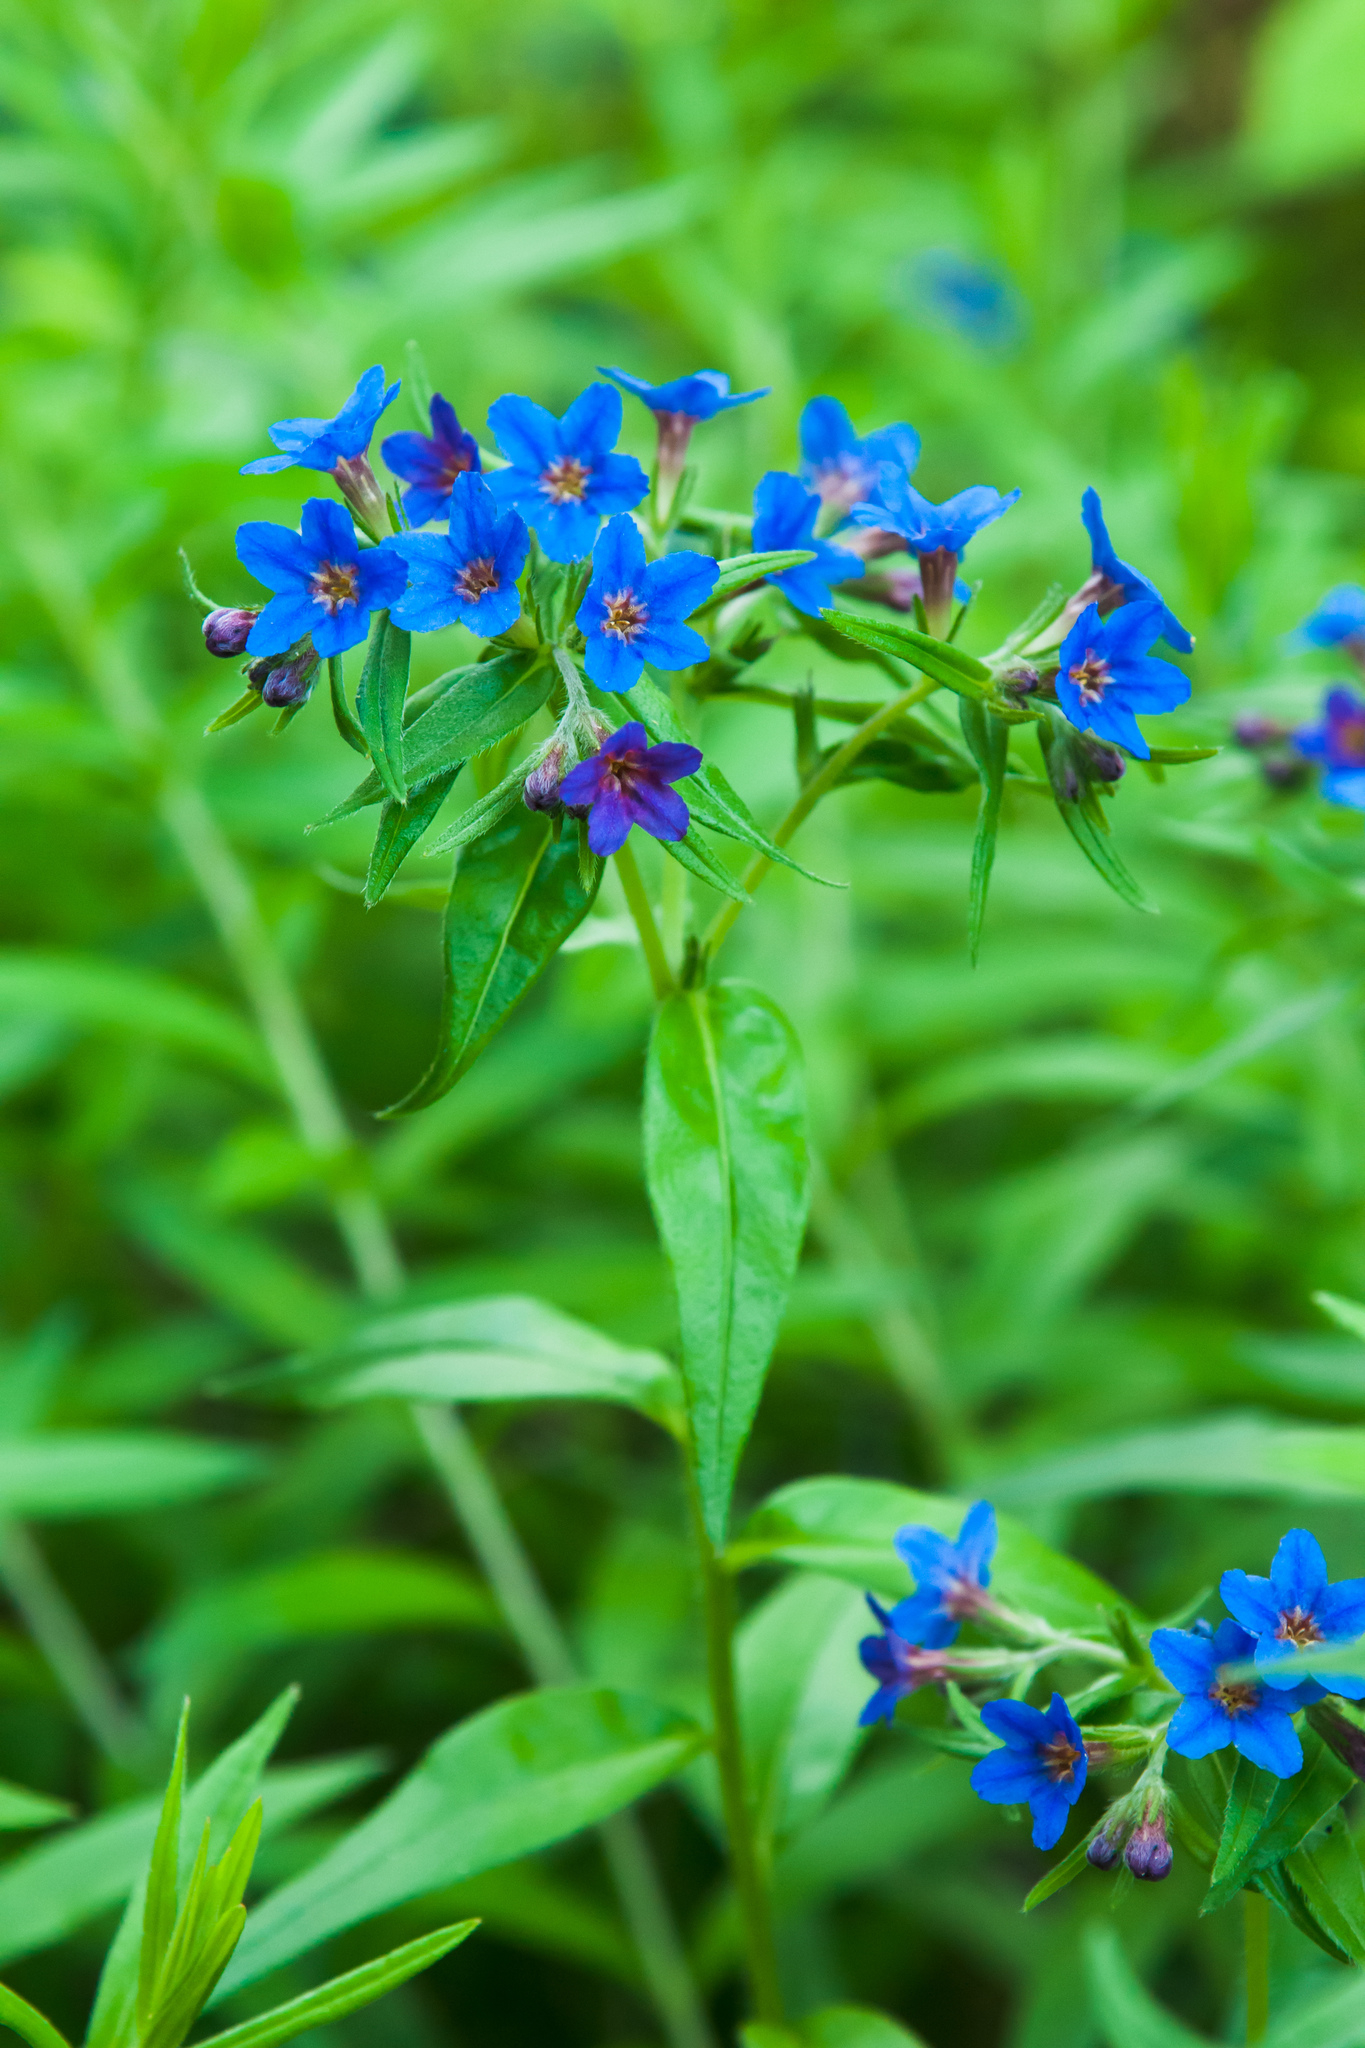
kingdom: Plantae
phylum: Tracheophyta
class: Magnoliopsida
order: Boraginales
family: Boraginaceae
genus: Aegonychon
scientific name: Aegonychon purpurocaeruleum
